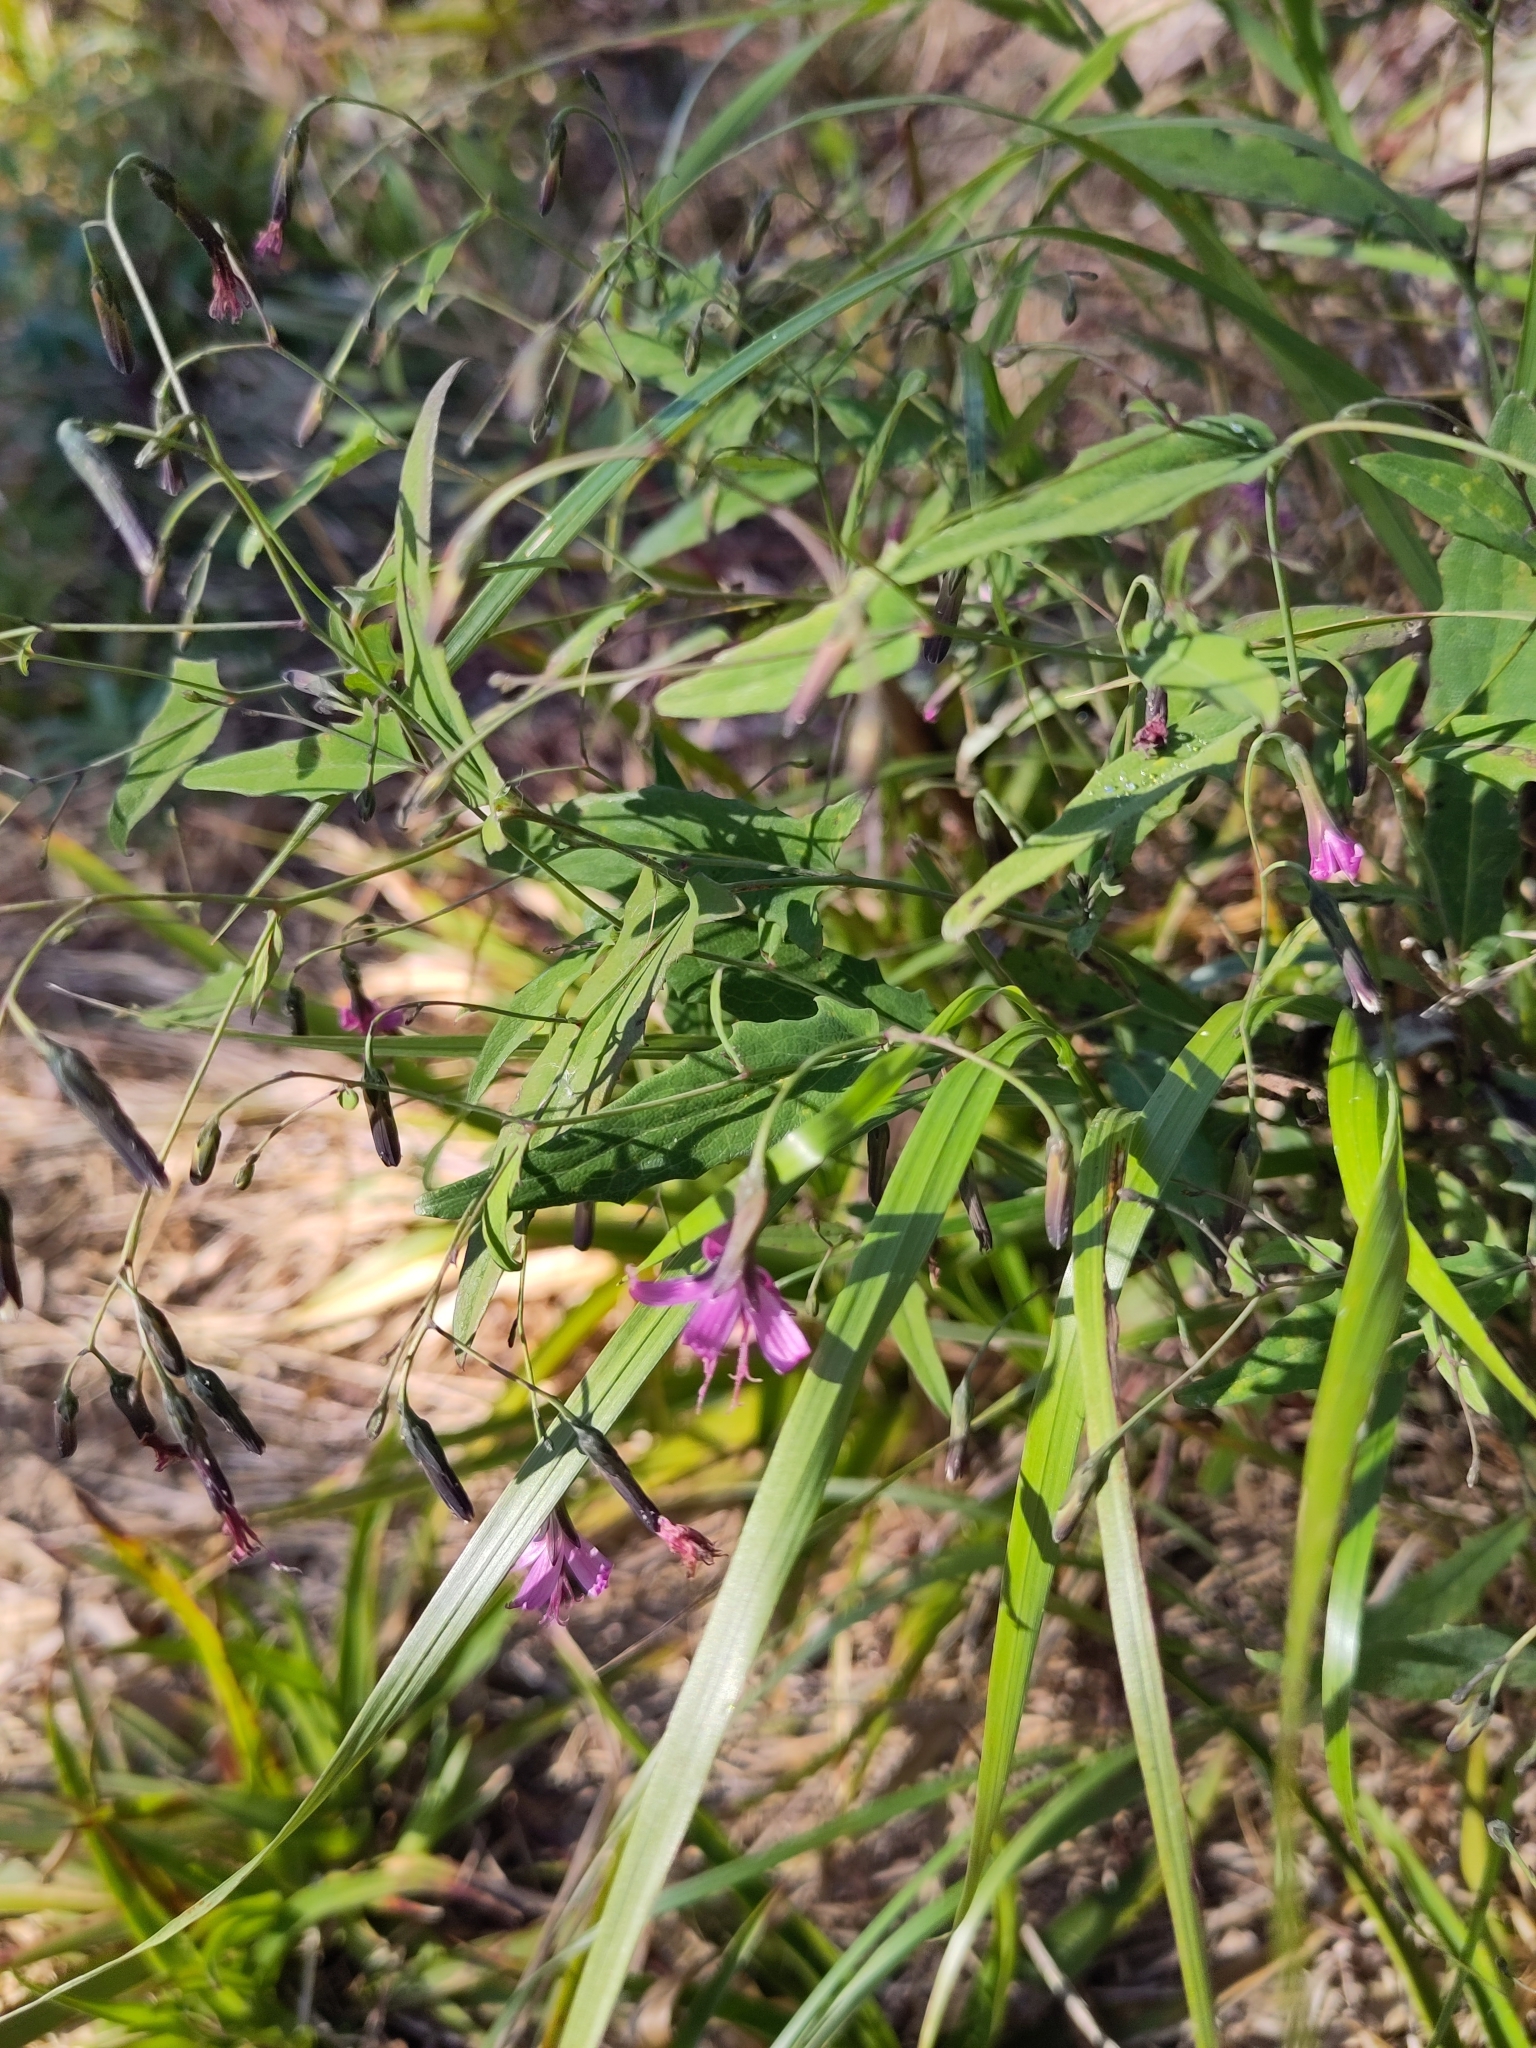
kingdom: Plantae
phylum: Tracheophyta
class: Magnoliopsida
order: Asterales
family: Asteraceae
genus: Prenanthes
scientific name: Prenanthes purpurea
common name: Purple lettuce
